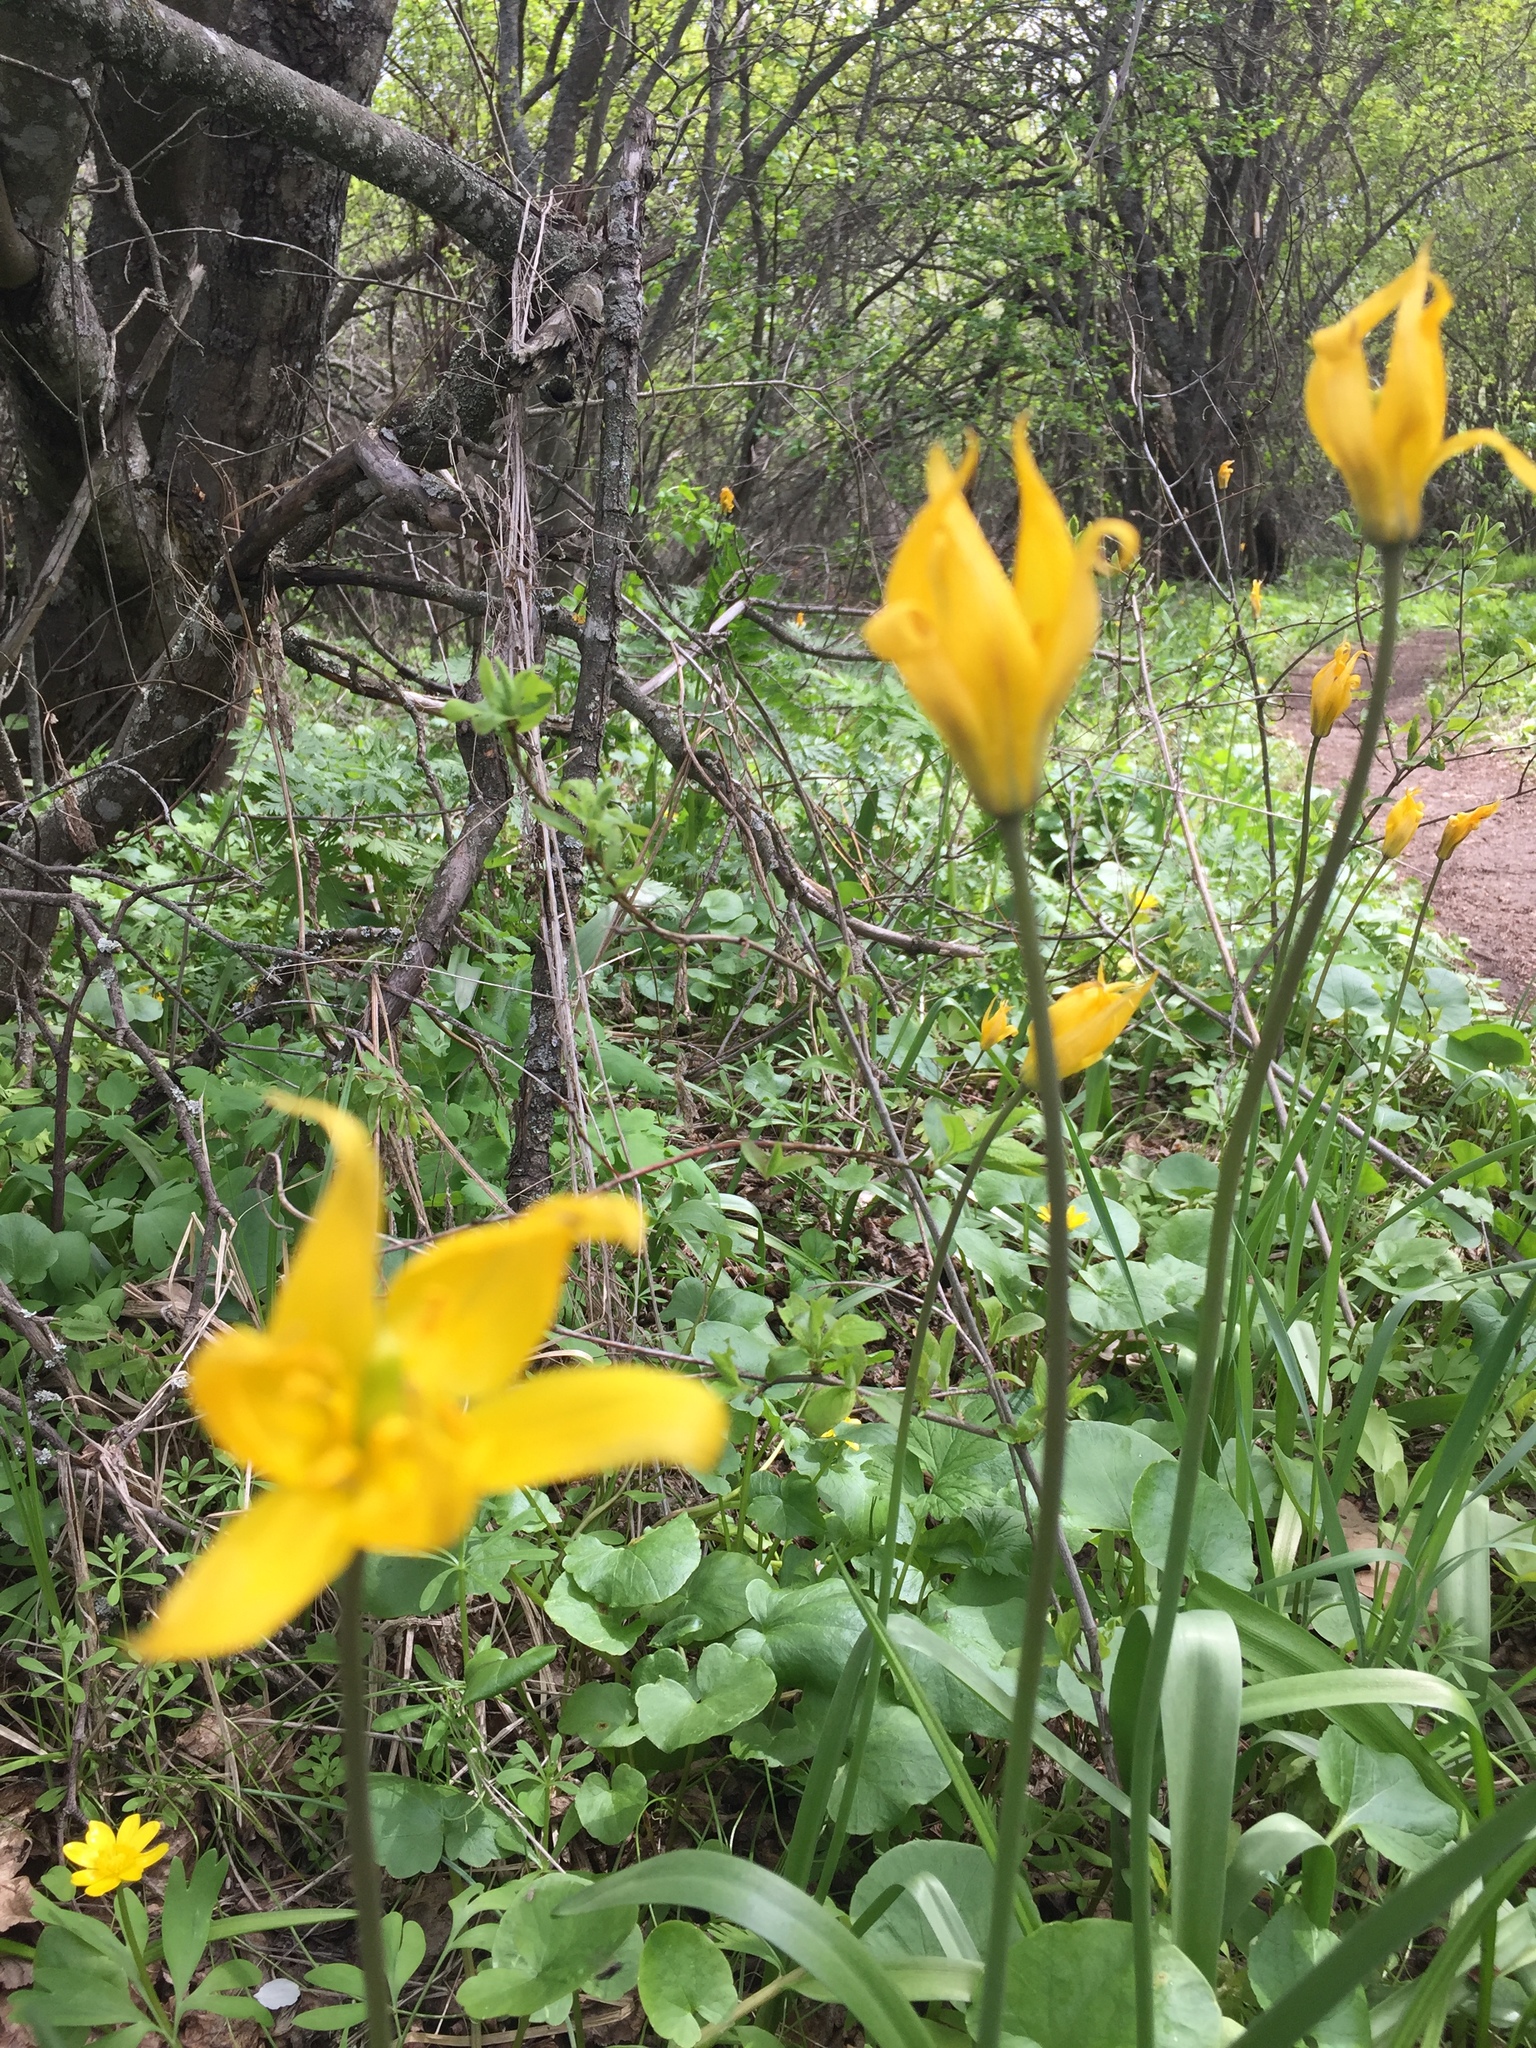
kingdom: Plantae
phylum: Tracheophyta
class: Liliopsida
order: Liliales
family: Liliaceae
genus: Tulipa
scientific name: Tulipa sylvestris
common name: Wild tulip
